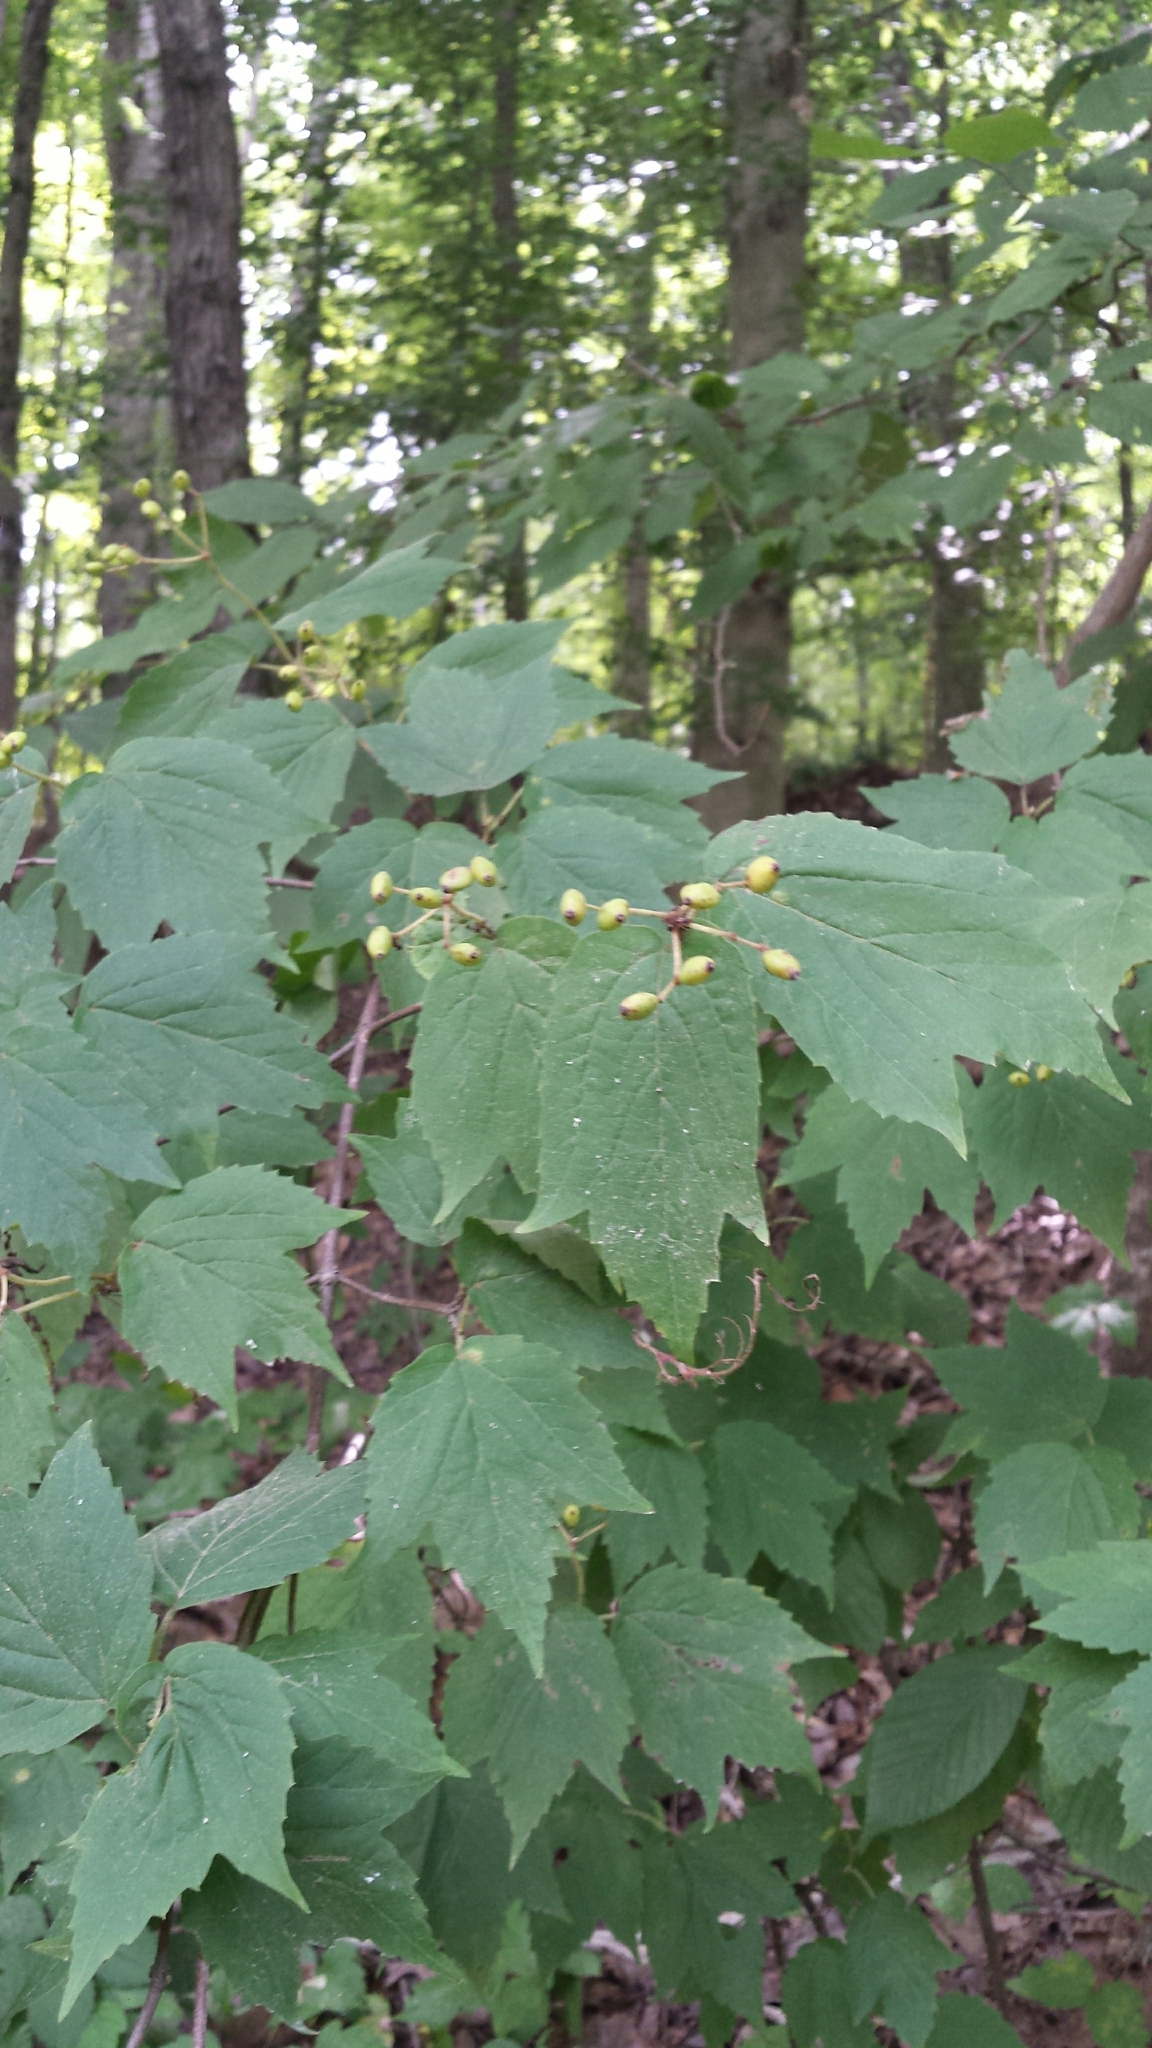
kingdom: Plantae
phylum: Tracheophyta
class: Magnoliopsida
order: Dipsacales
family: Viburnaceae
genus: Viburnum
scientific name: Viburnum acerifolium
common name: Dockmackie
